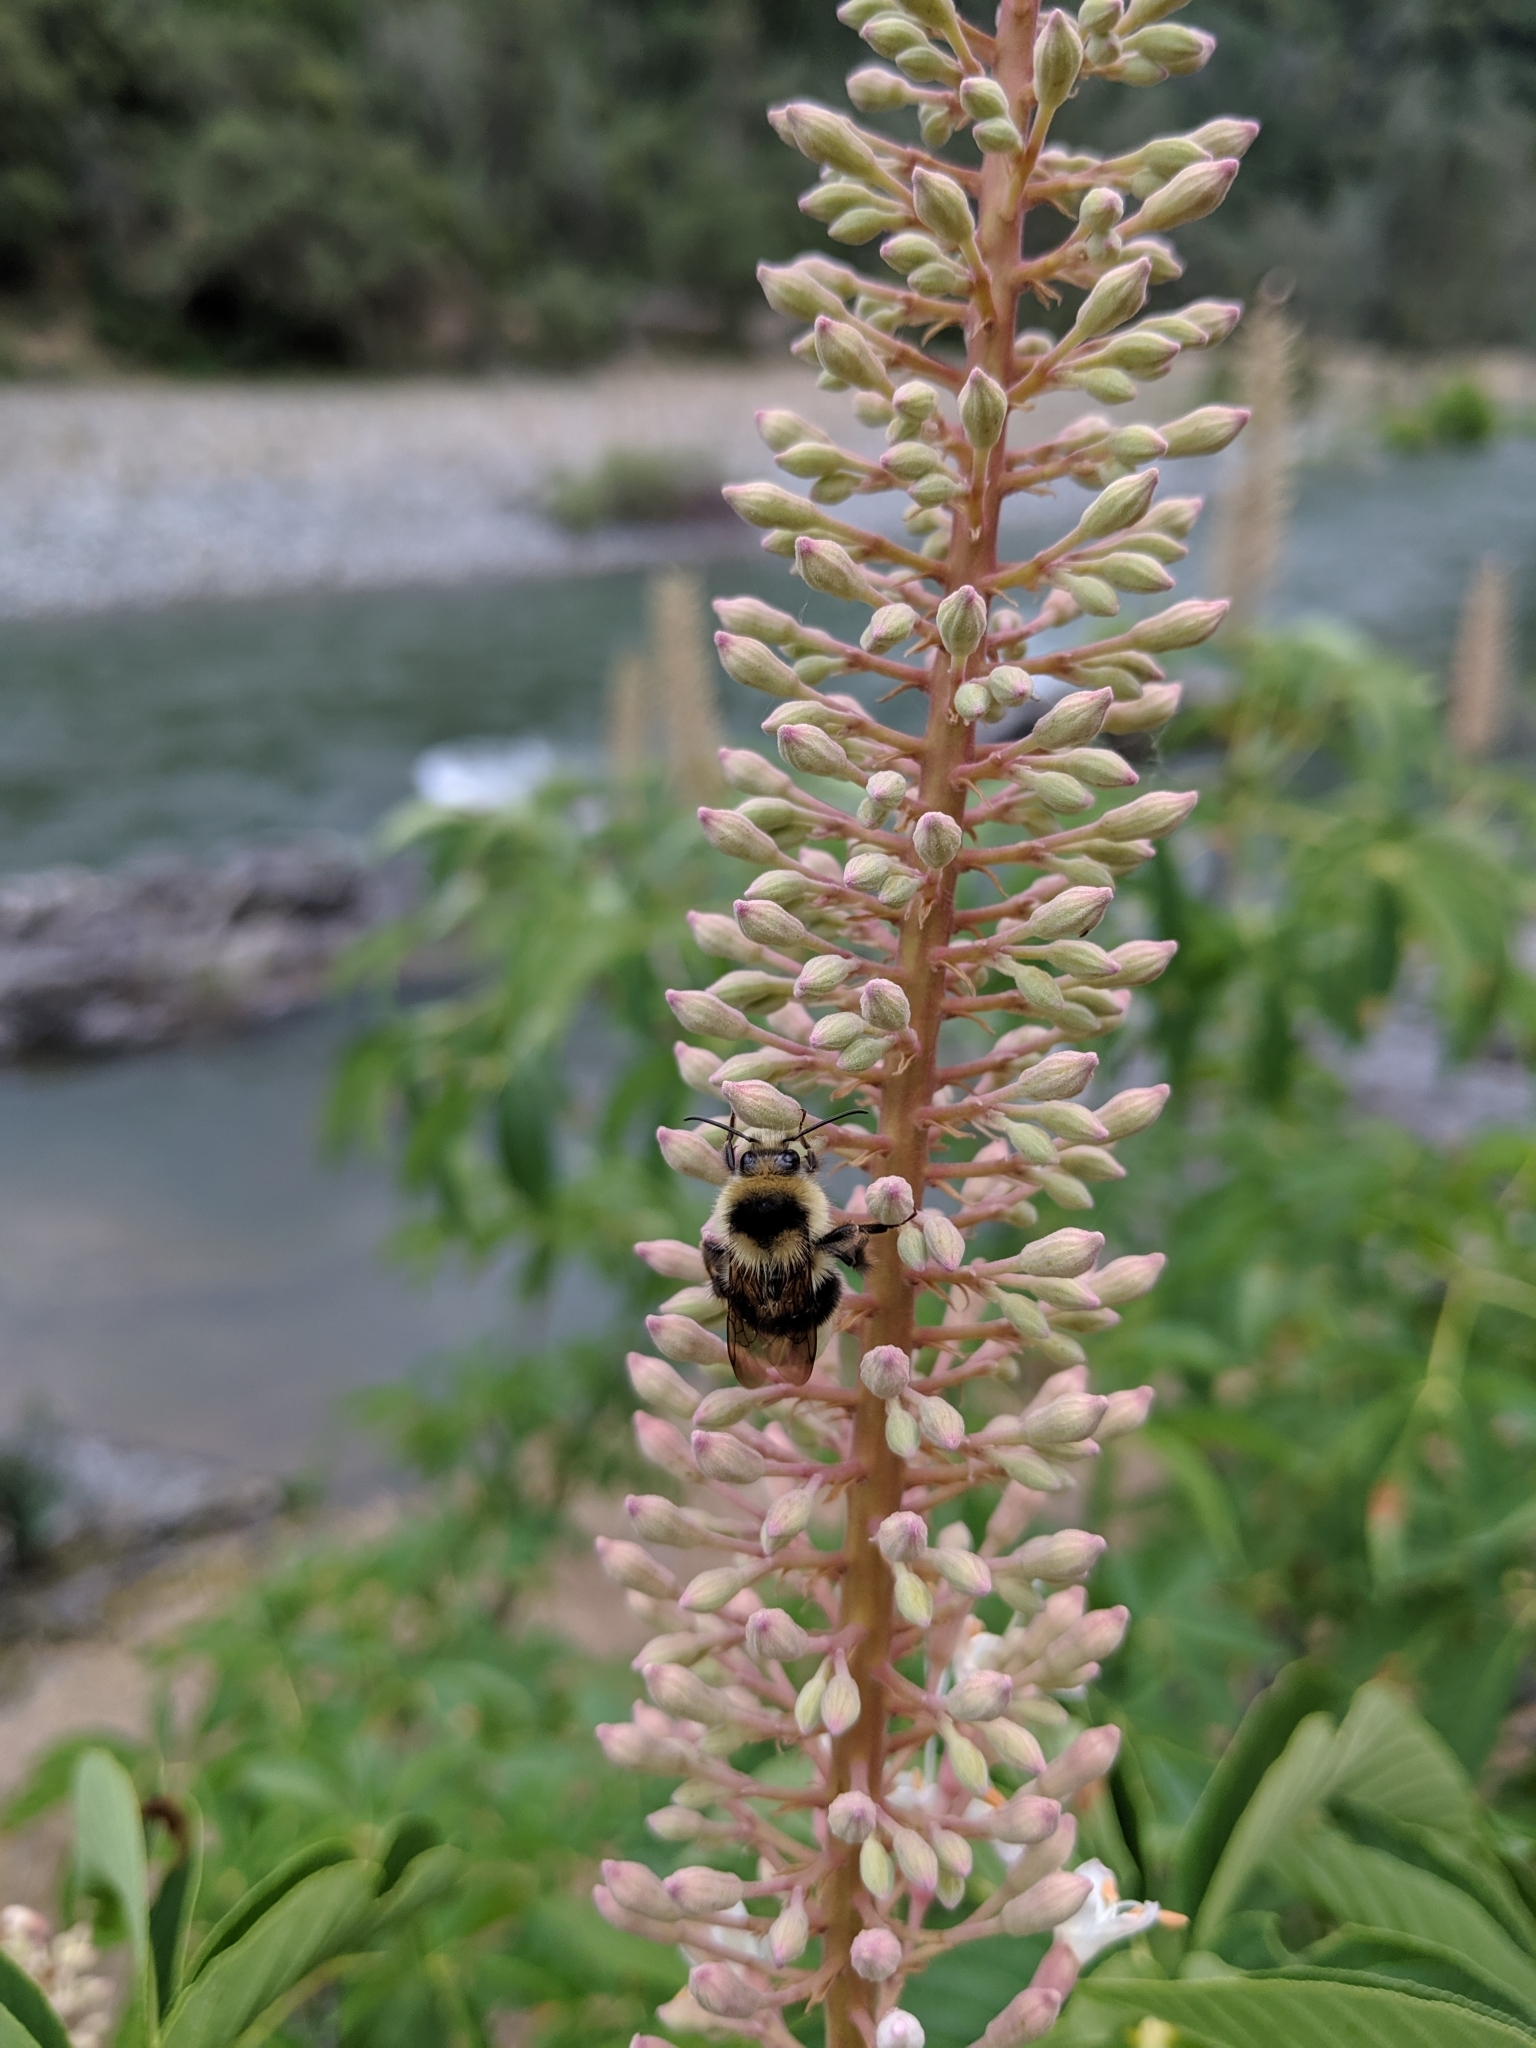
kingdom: Animalia
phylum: Arthropoda
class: Insecta
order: Hymenoptera
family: Apidae
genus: Bombus
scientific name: Bombus melanopygus
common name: Black tail bumble bee
